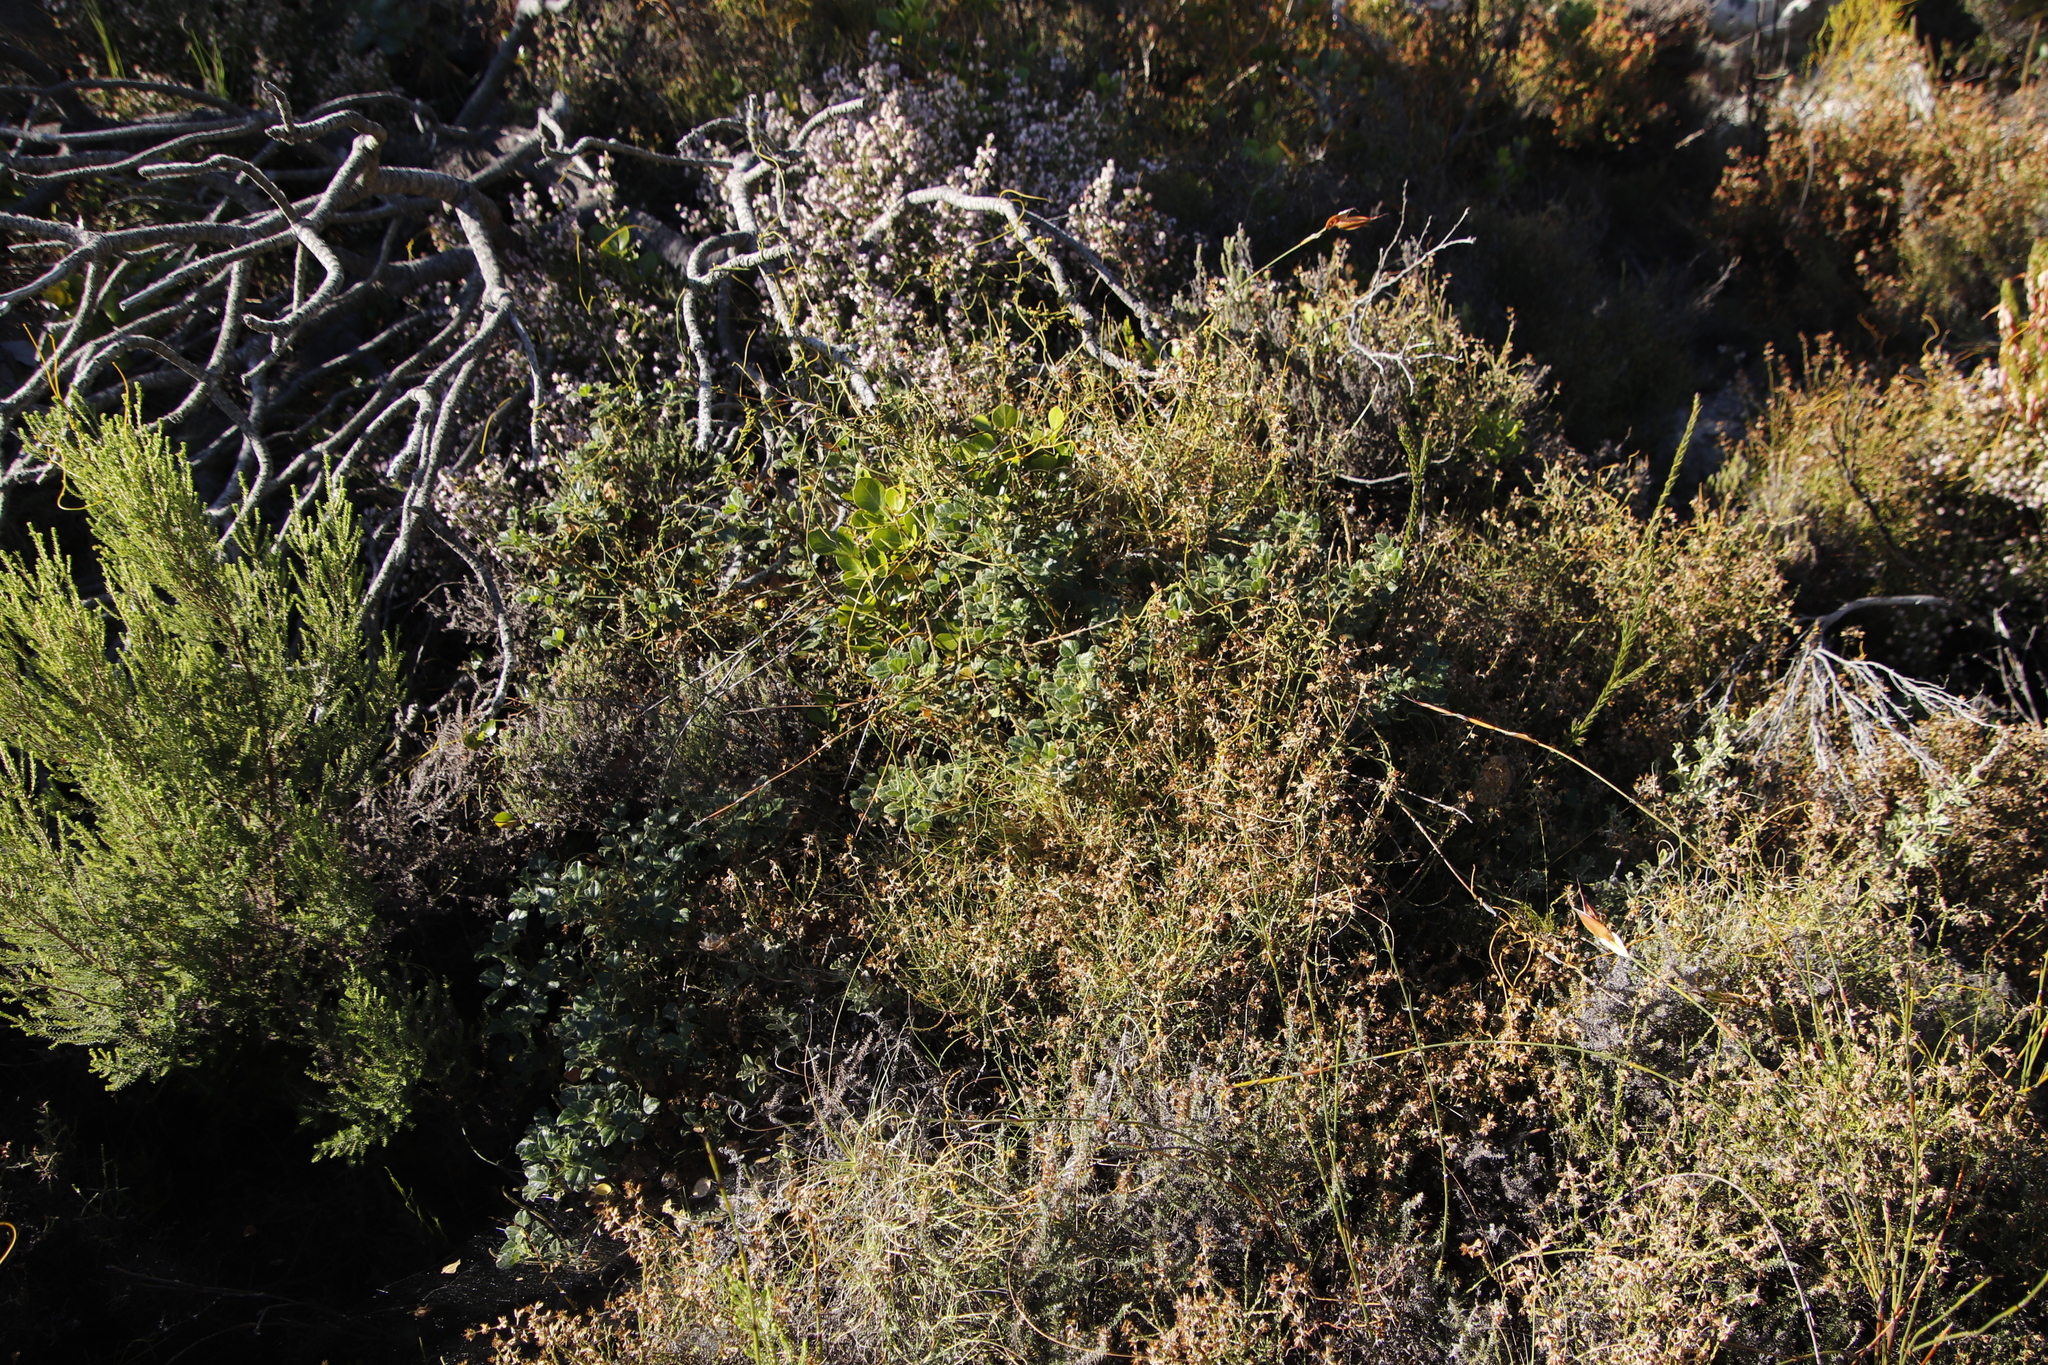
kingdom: Plantae
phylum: Tracheophyta
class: Magnoliopsida
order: Fabales
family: Fabaceae
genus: Bolusafra
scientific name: Bolusafra bituminosa
